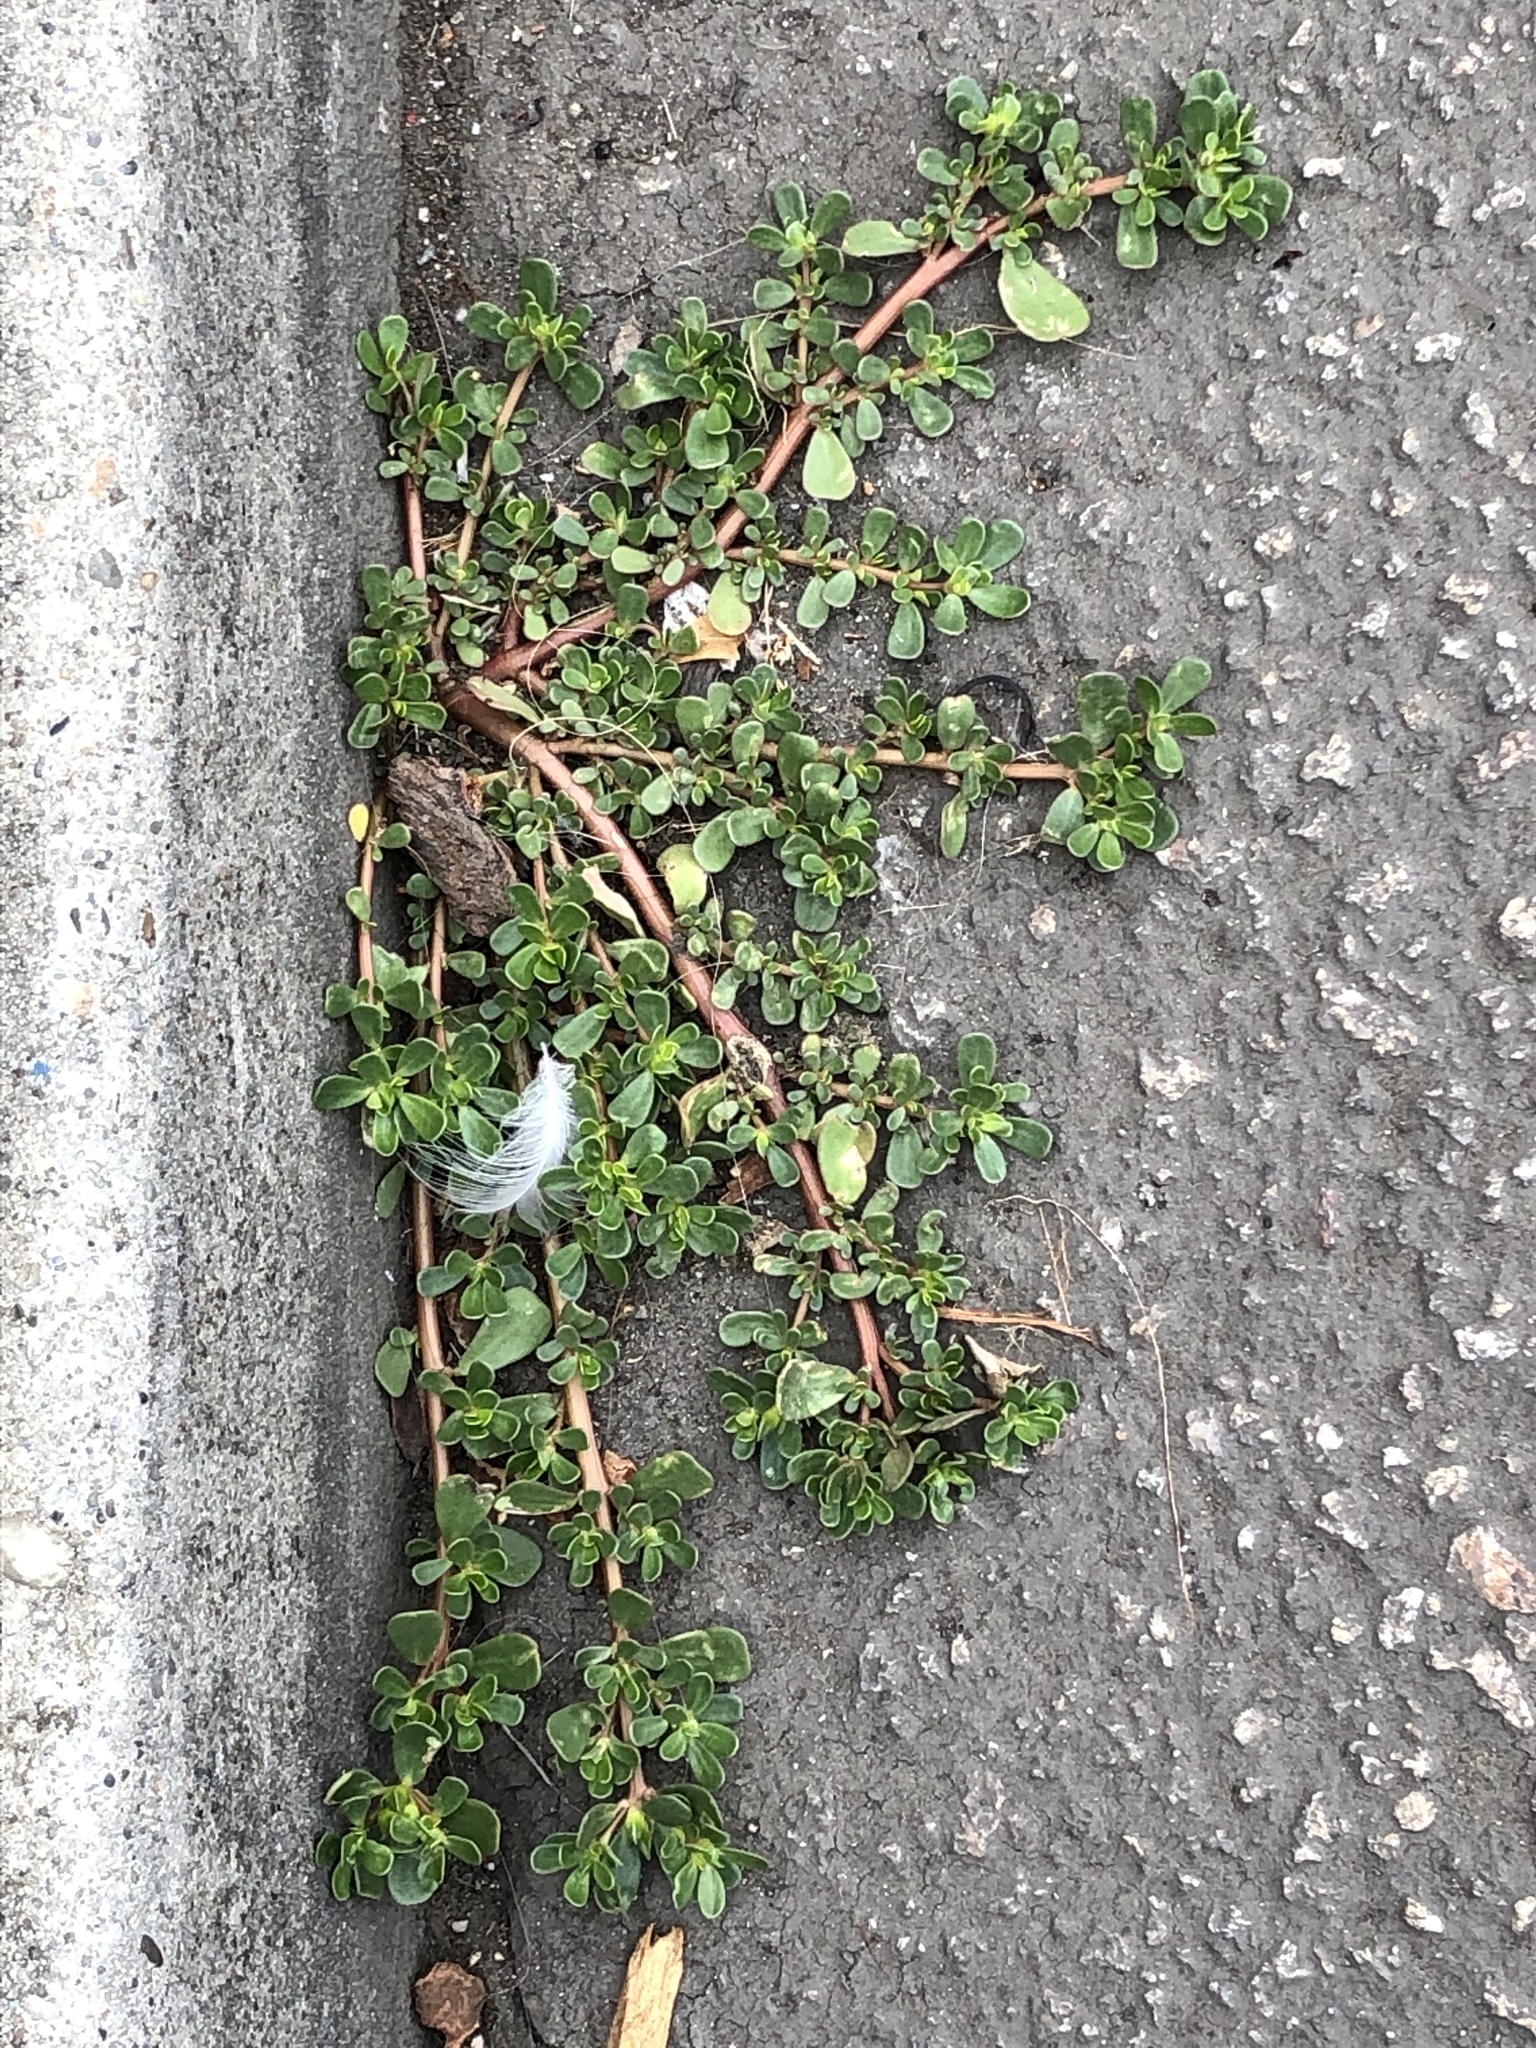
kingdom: Plantae
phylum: Tracheophyta
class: Magnoliopsida
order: Caryophyllales
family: Portulacaceae
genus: Portulaca
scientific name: Portulaca oleracea
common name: Common purslane
